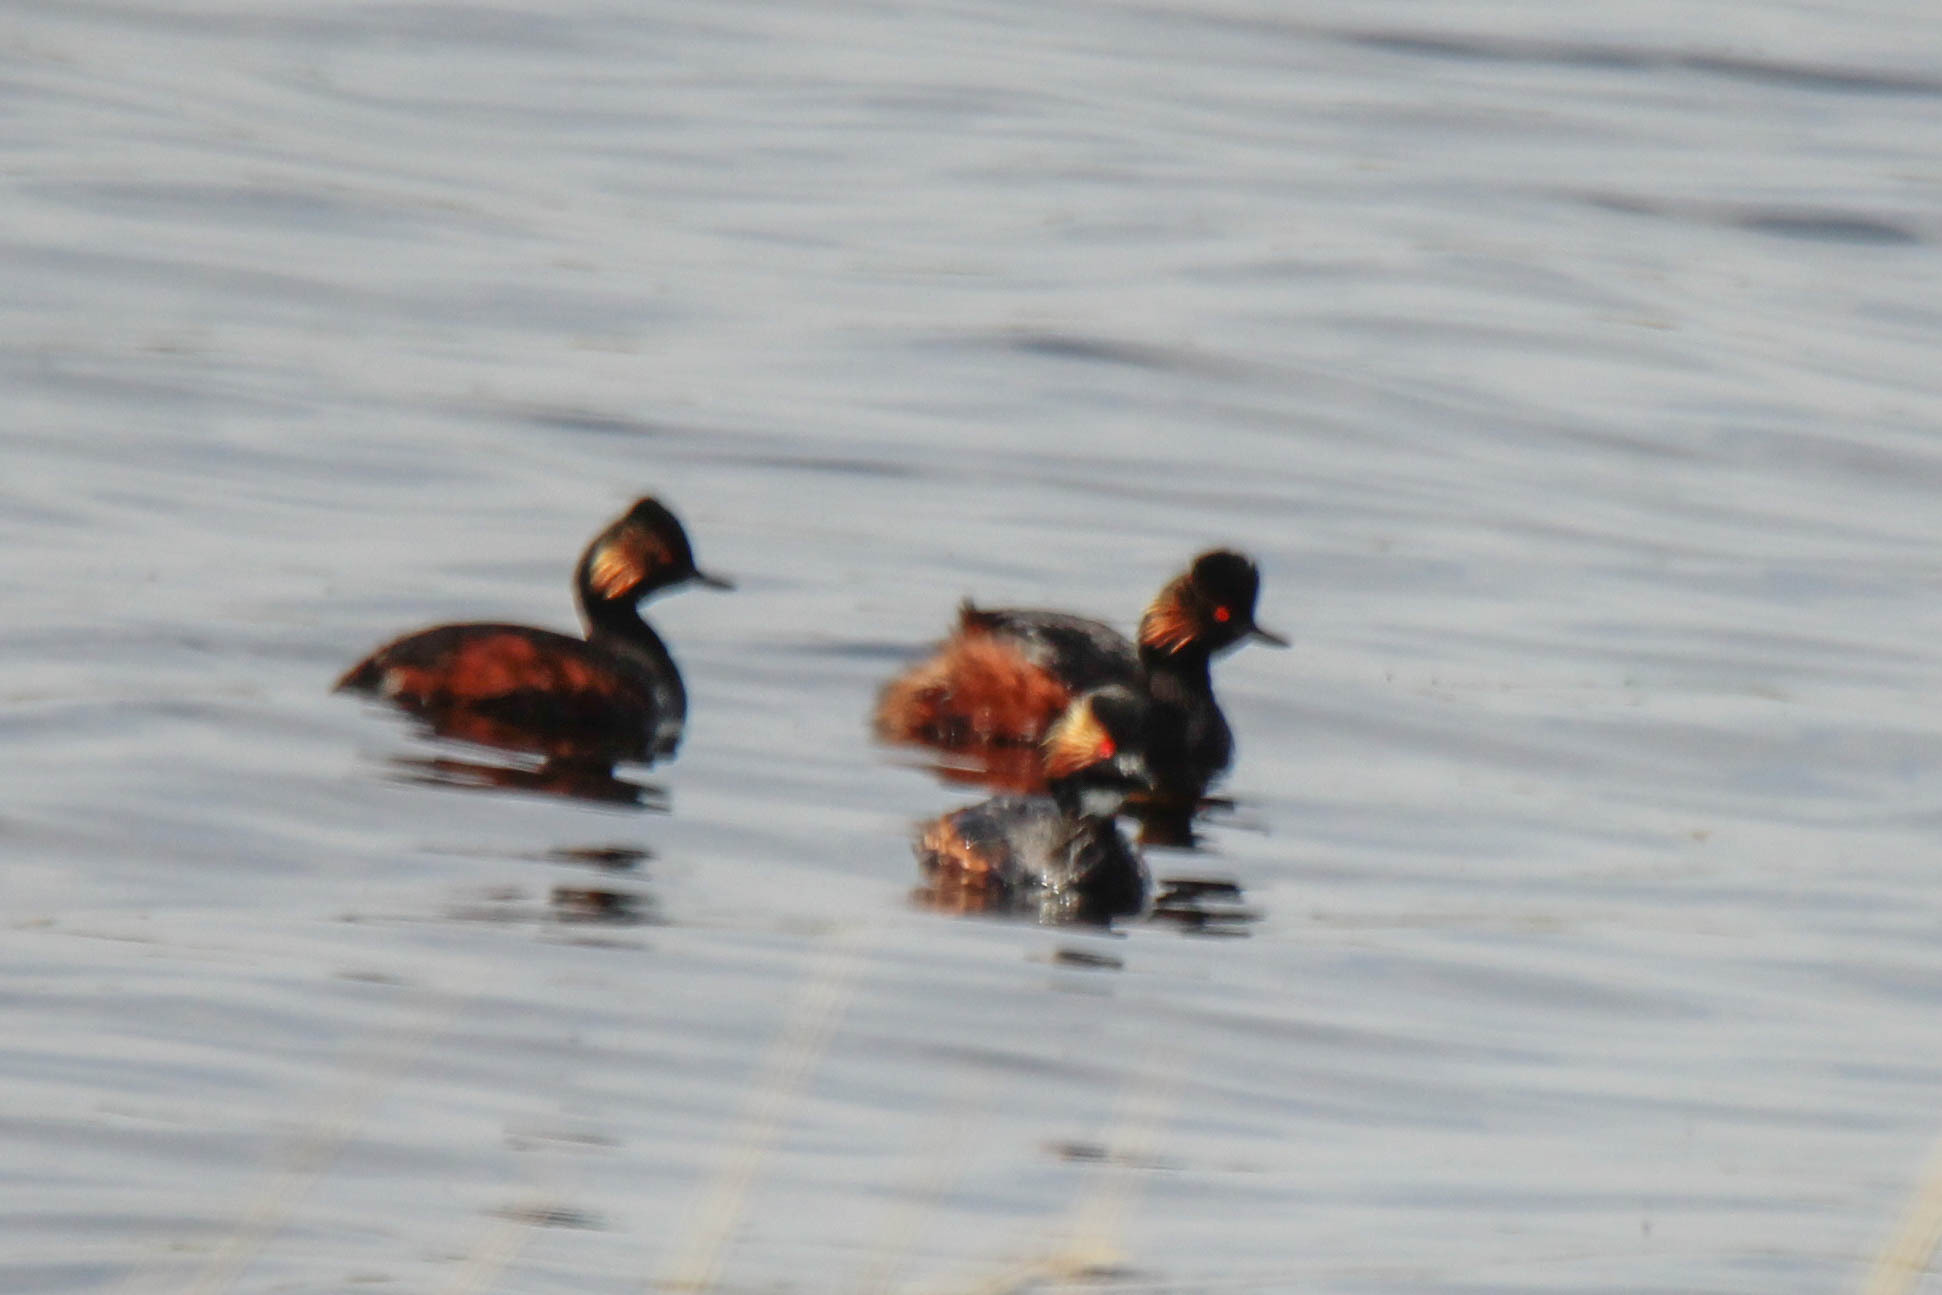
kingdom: Animalia
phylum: Chordata
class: Aves
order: Podicipediformes
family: Podicipedidae
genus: Podiceps
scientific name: Podiceps nigricollis
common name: Black-necked grebe
